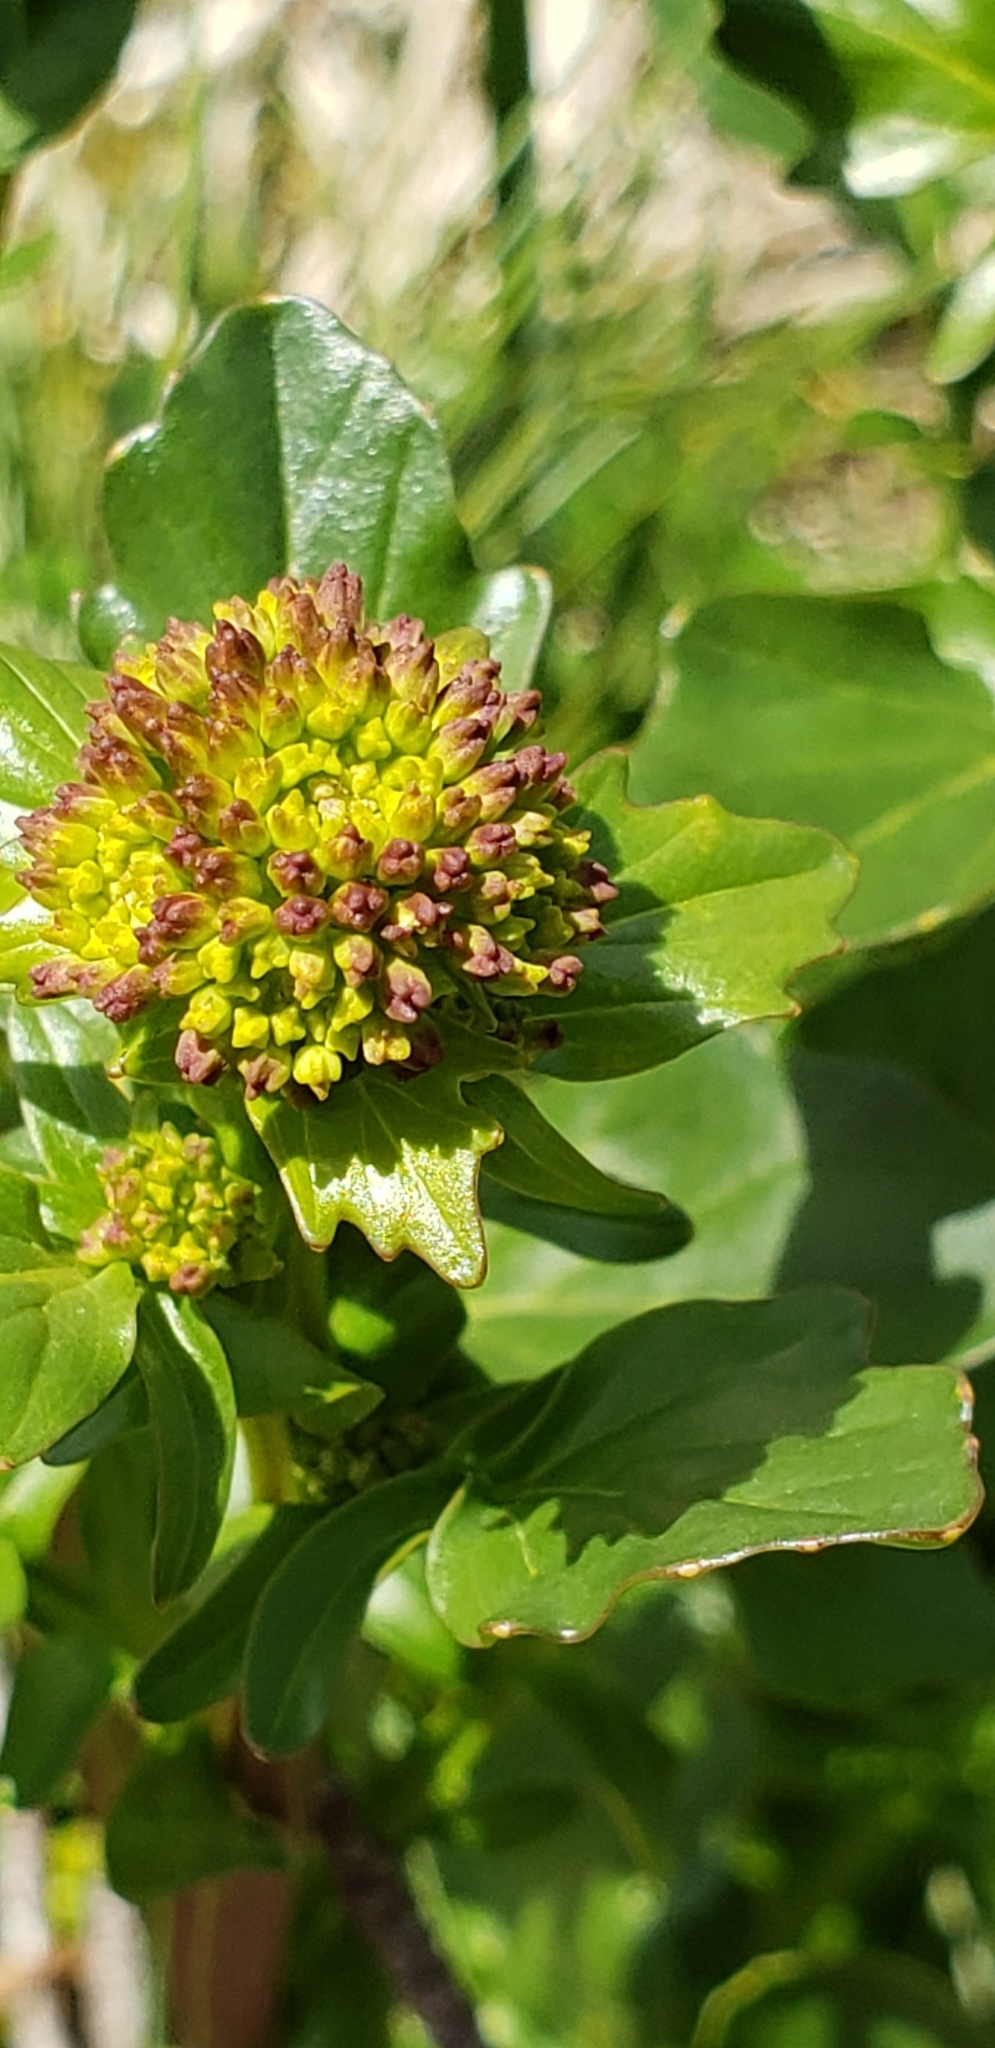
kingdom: Plantae
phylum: Tracheophyta
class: Magnoliopsida
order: Brassicales
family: Brassicaceae
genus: Barbarea
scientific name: Barbarea vulgaris
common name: Cressy-greens
